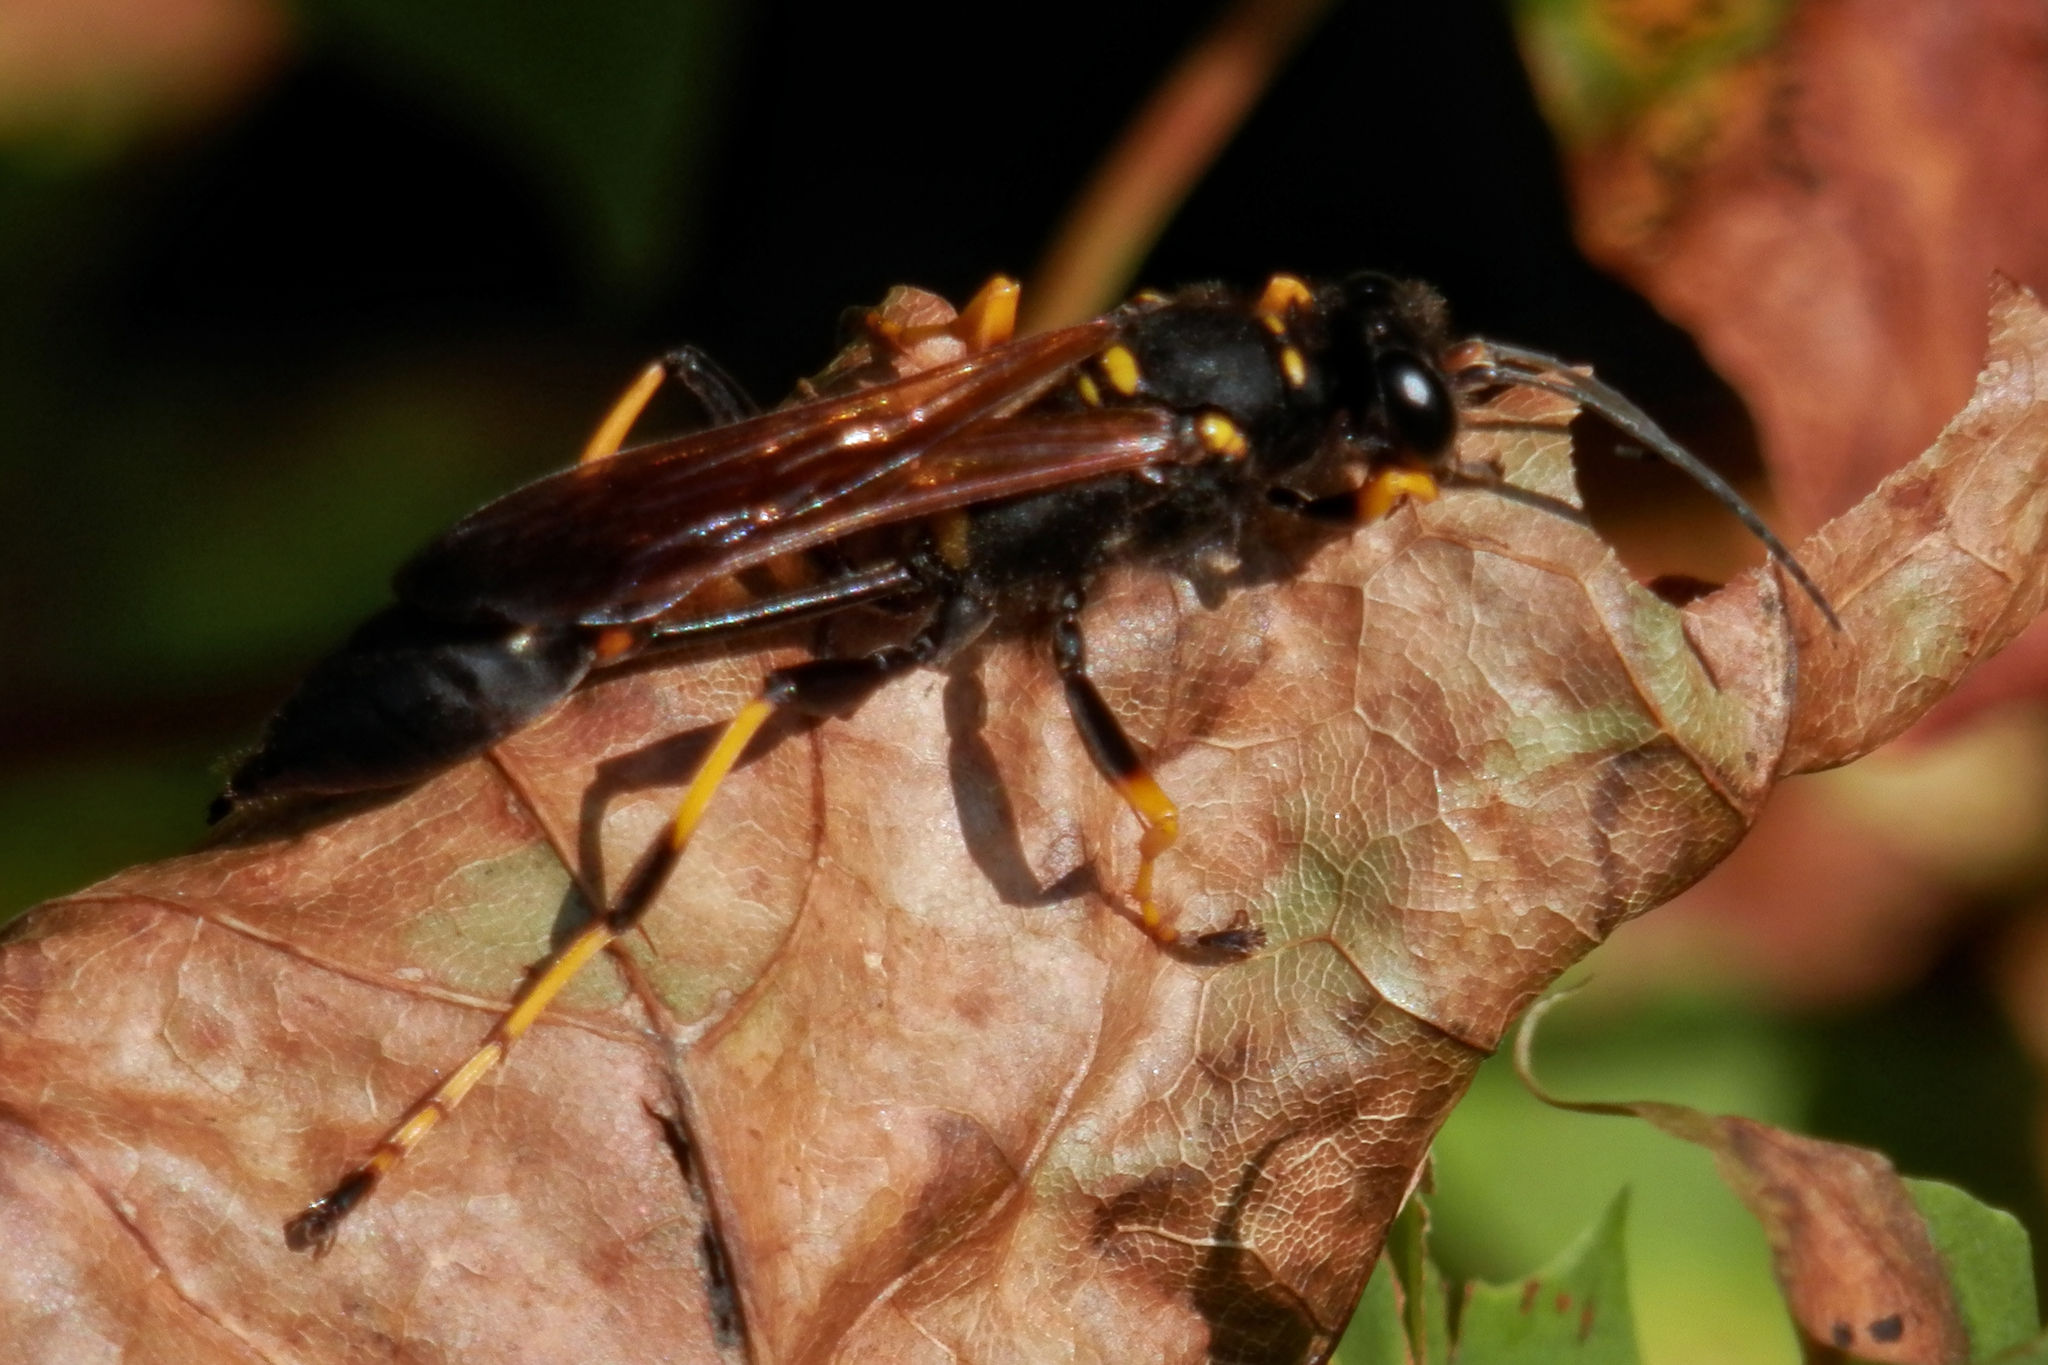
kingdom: Animalia
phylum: Arthropoda
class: Insecta
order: Hymenoptera
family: Sphecidae
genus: Sceliphron
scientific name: Sceliphron caementarium
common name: Mud dauber
